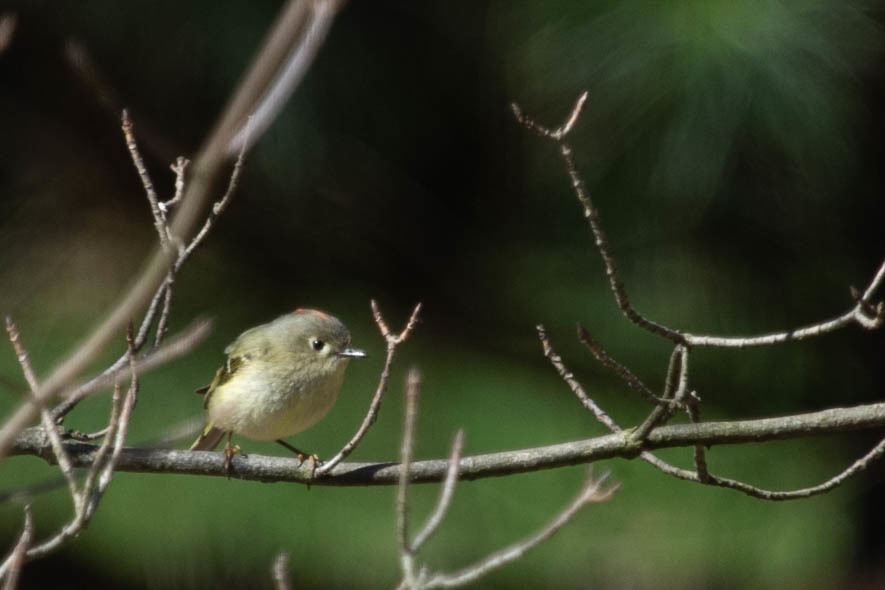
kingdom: Animalia
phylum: Chordata
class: Aves
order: Passeriformes
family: Regulidae
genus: Regulus
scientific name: Regulus calendula
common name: Ruby-crowned kinglet
